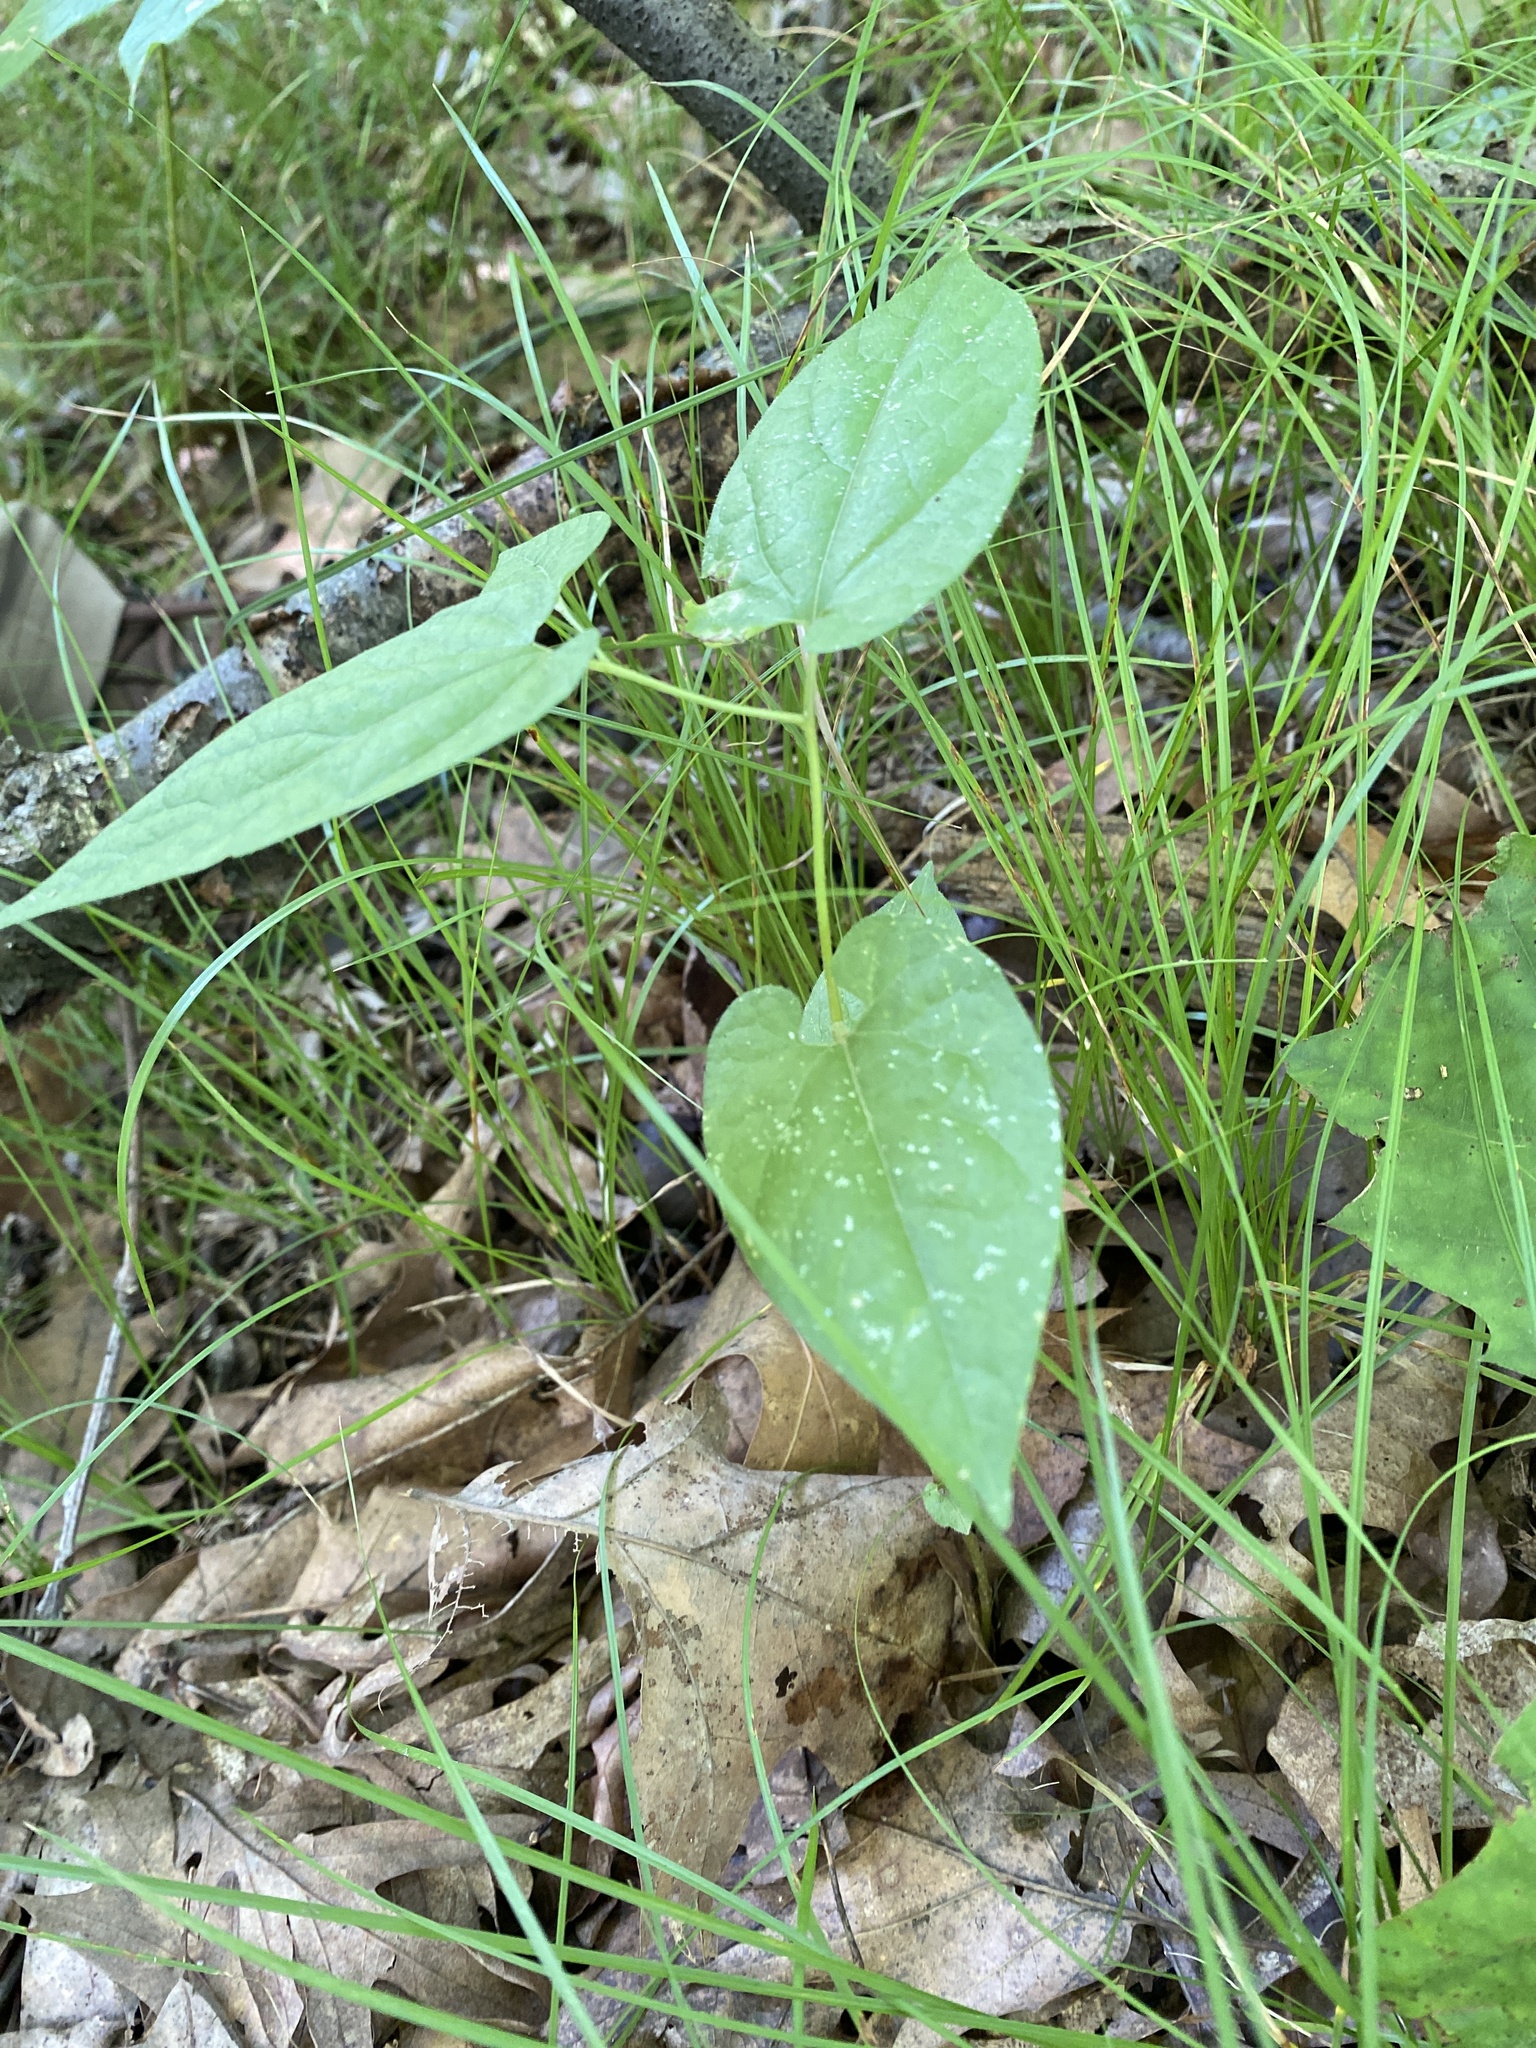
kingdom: Plantae
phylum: Tracheophyta
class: Magnoliopsida
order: Piperales
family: Aristolochiaceae
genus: Endodeca
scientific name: Endodeca serpentaria
